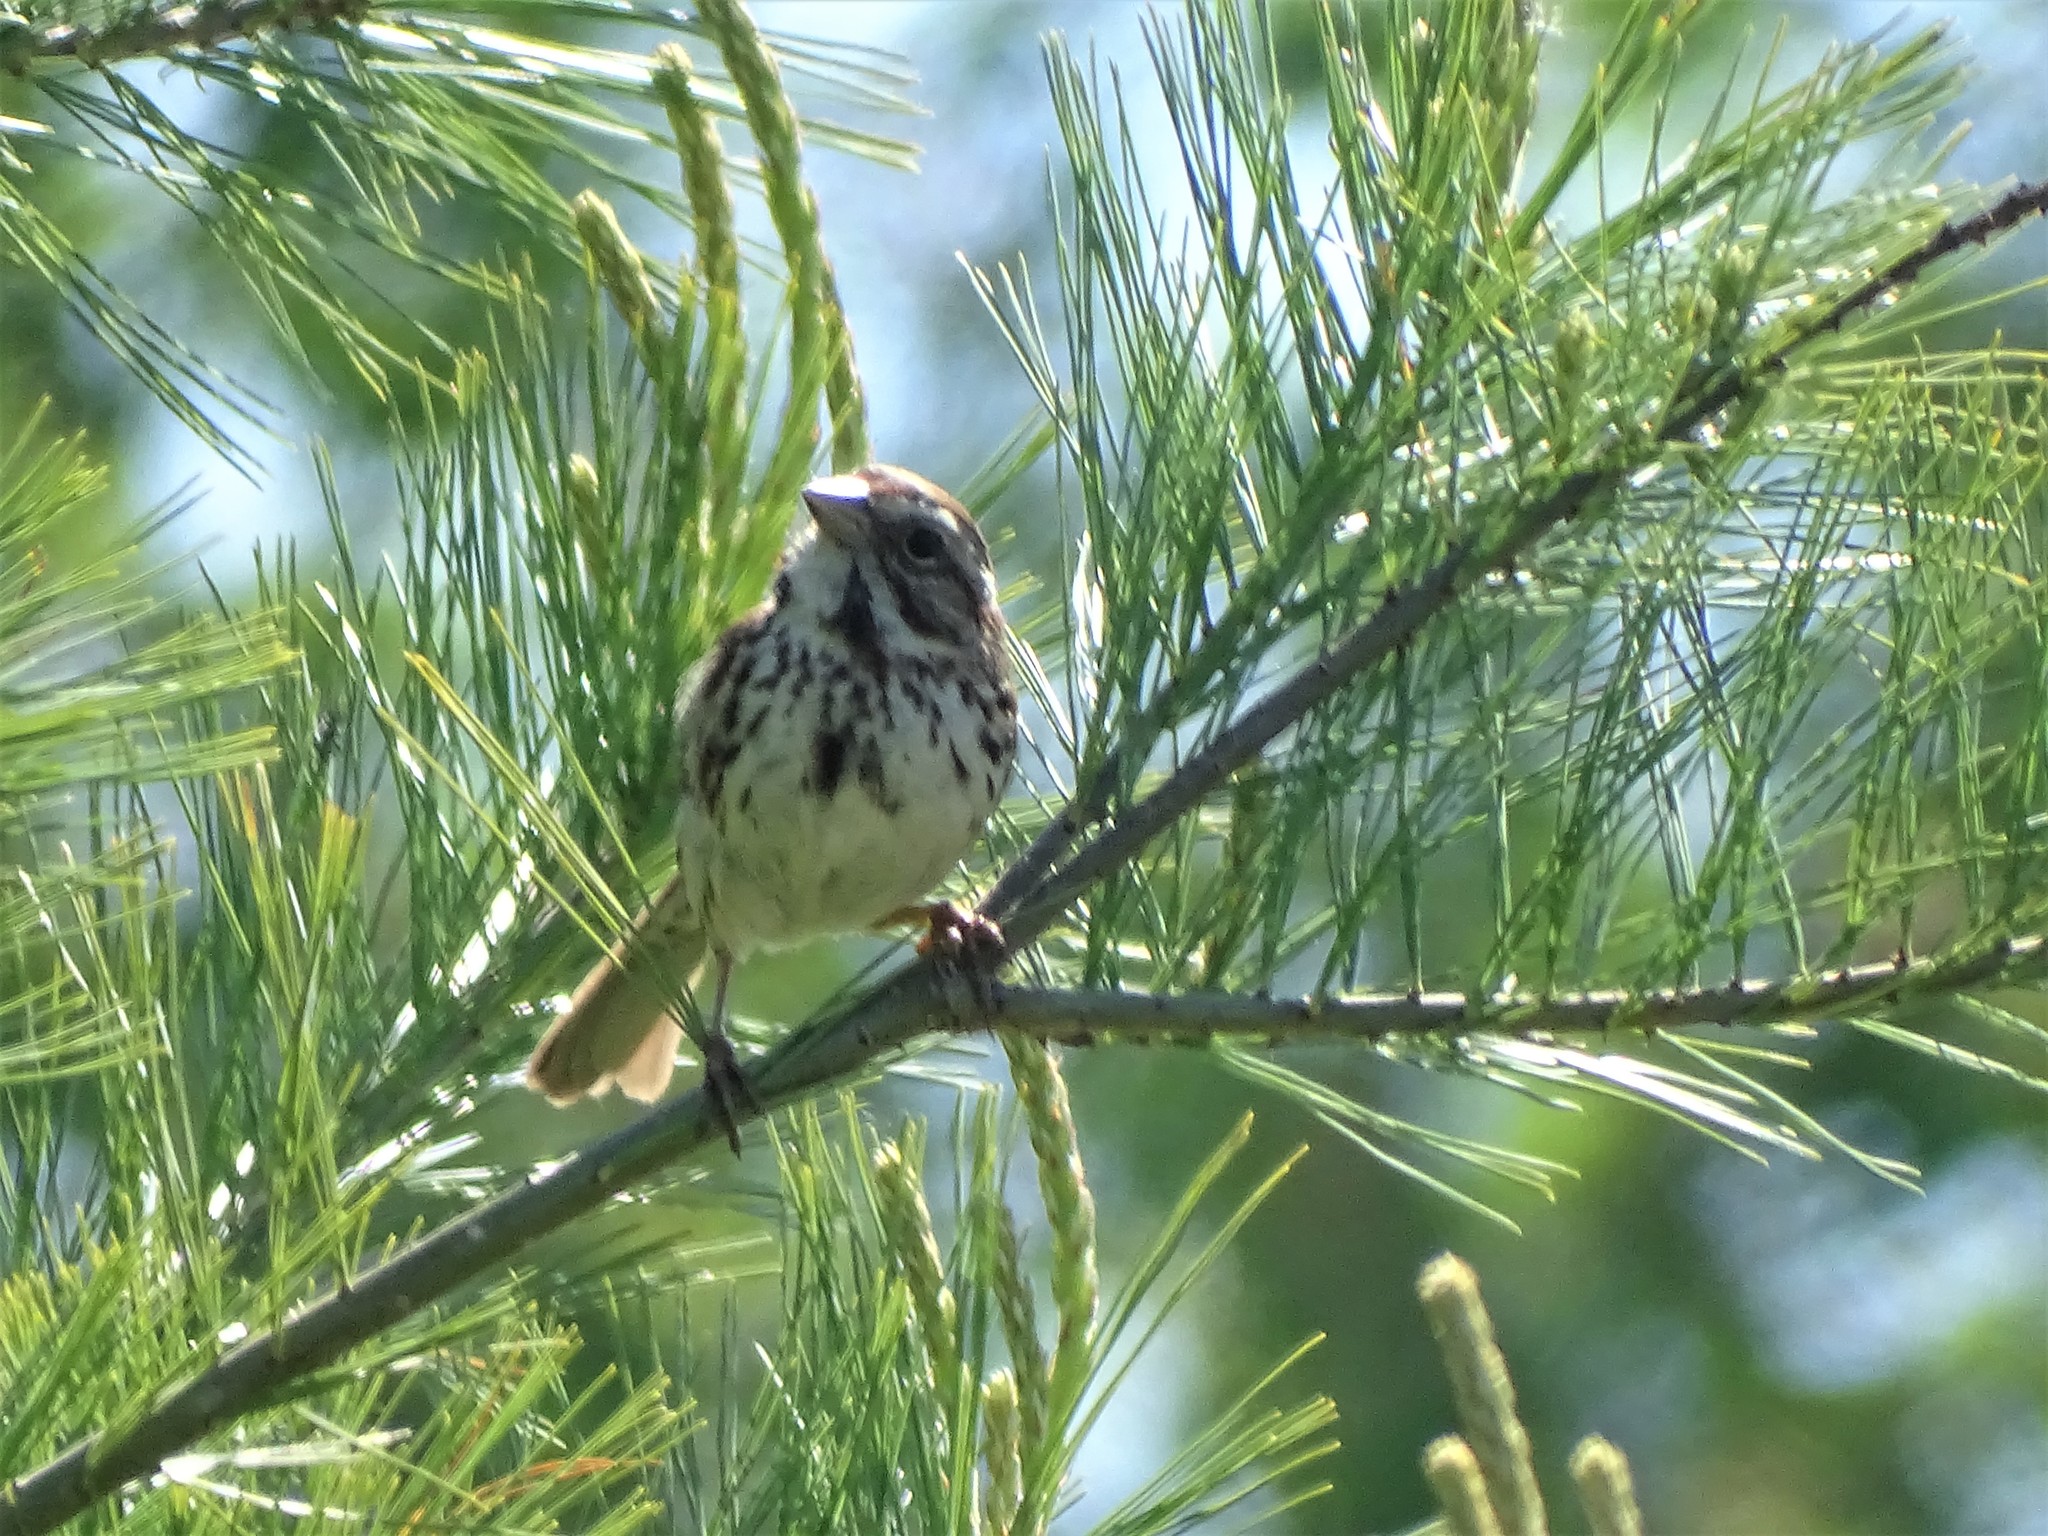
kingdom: Animalia
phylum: Chordata
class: Aves
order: Passeriformes
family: Passerellidae
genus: Melospiza
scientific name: Melospiza melodia
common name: Song sparrow
